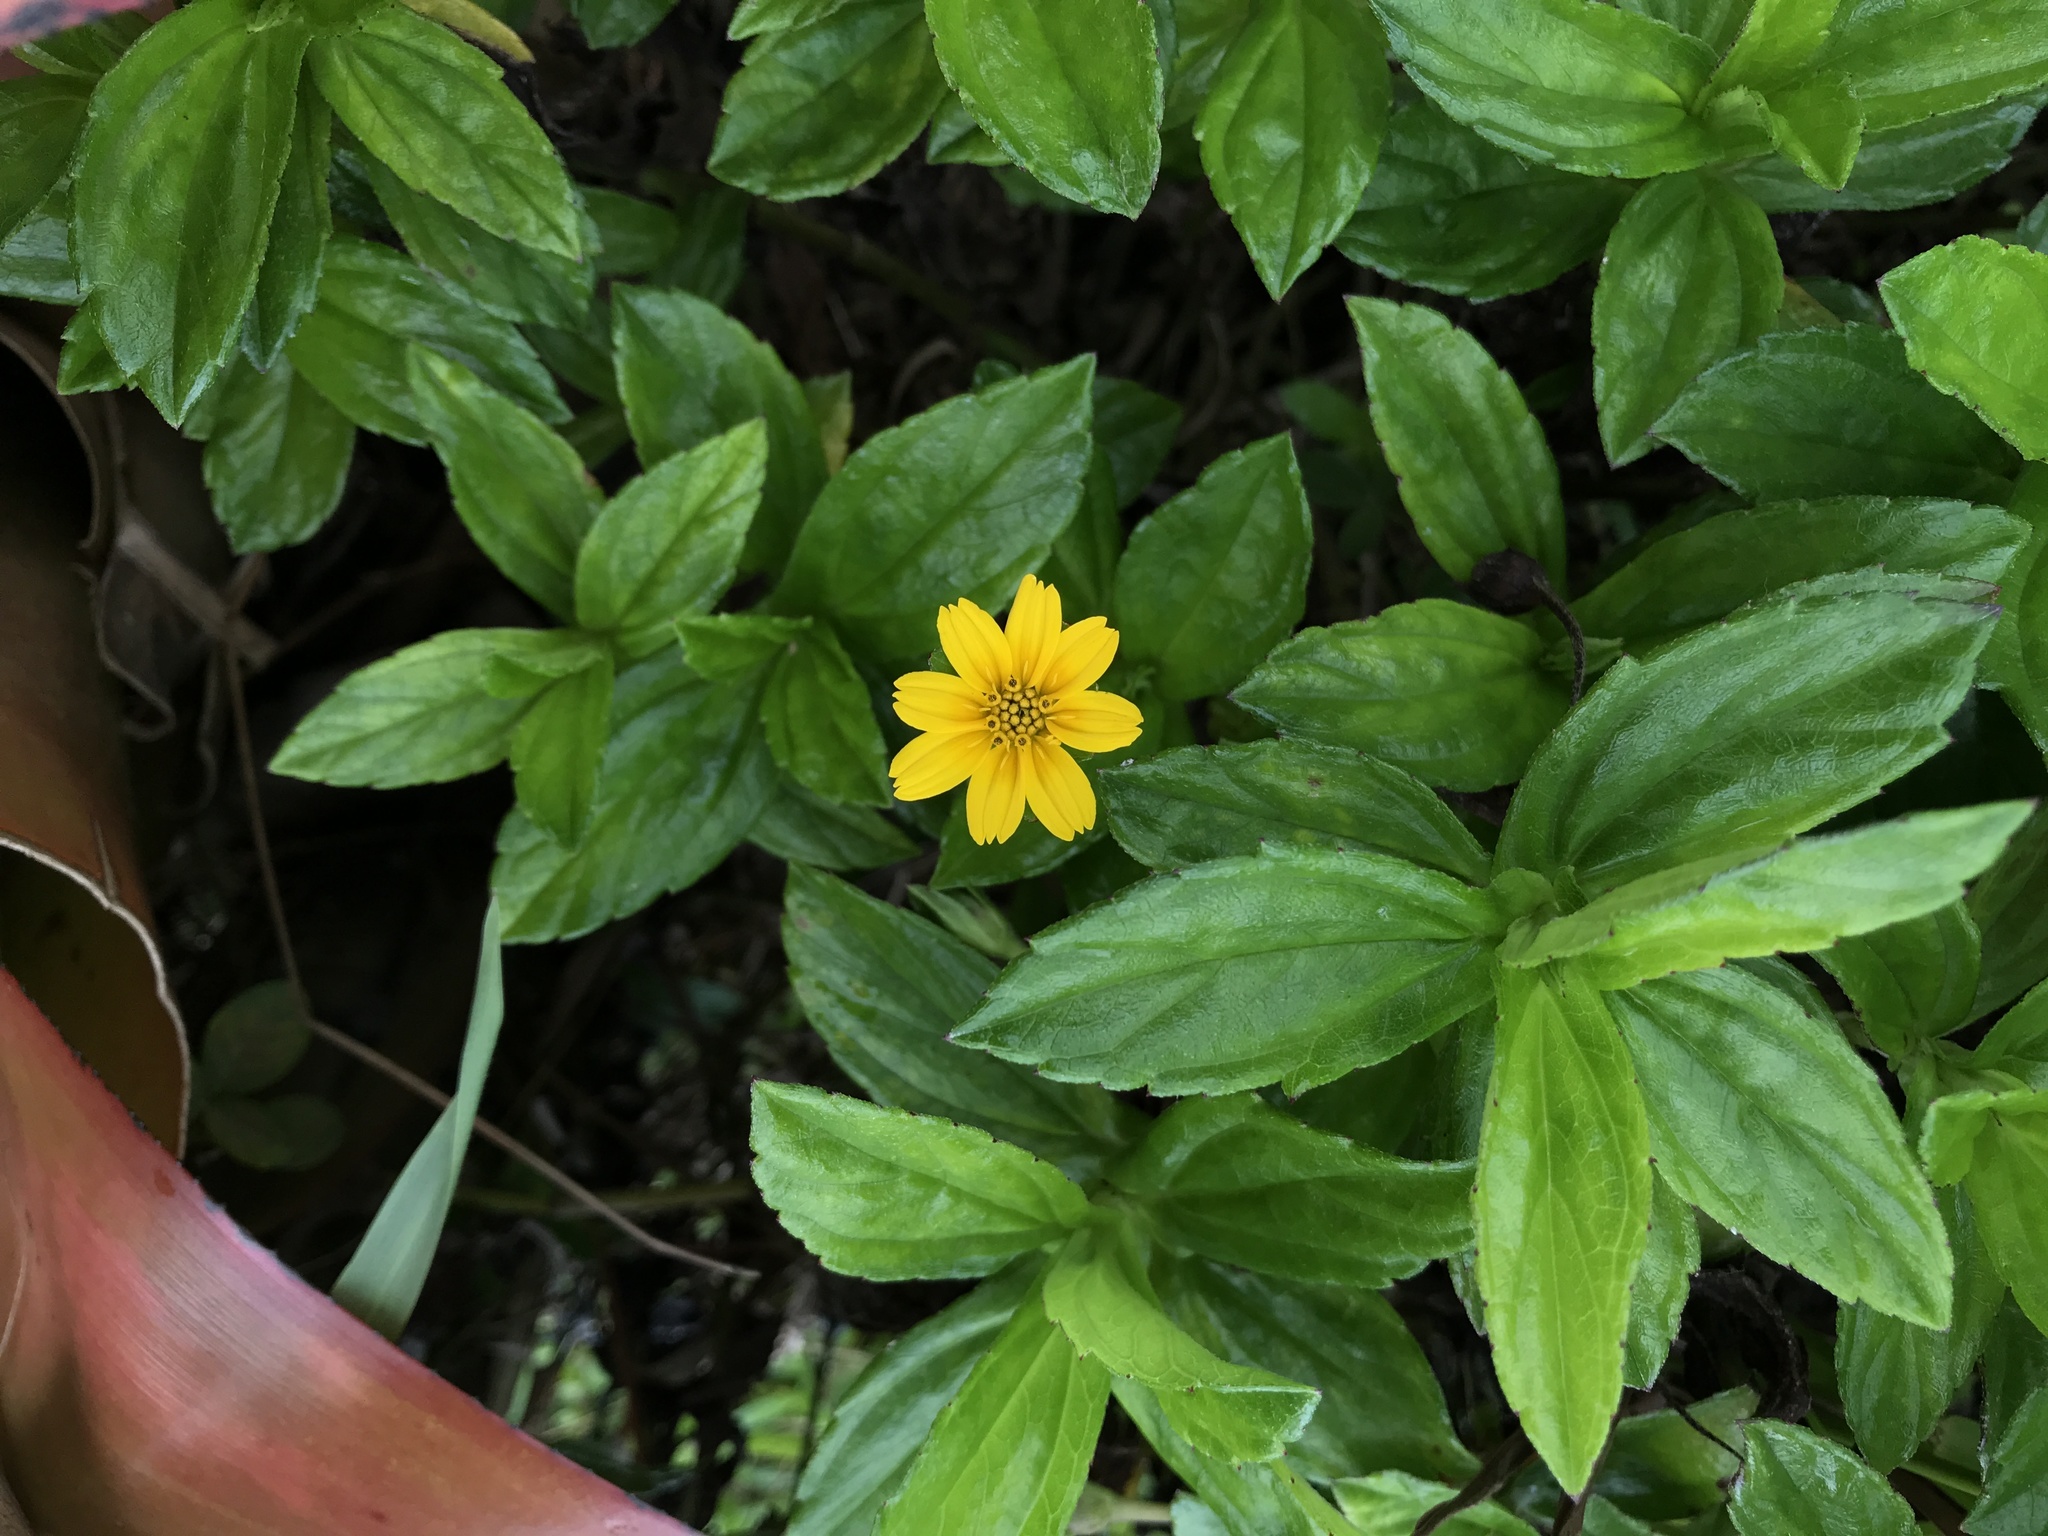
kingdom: Plantae
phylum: Tracheophyta
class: Magnoliopsida
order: Asterales
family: Asteraceae
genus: Sphagneticola
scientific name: Sphagneticola trilobata
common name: Bay biscayne creeping-oxeye
